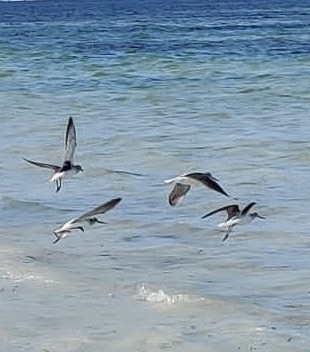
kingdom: Animalia
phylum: Chordata
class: Aves
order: Charadriiformes
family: Scolopacidae
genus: Tringa
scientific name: Tringa nebularia
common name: Common greenshank
